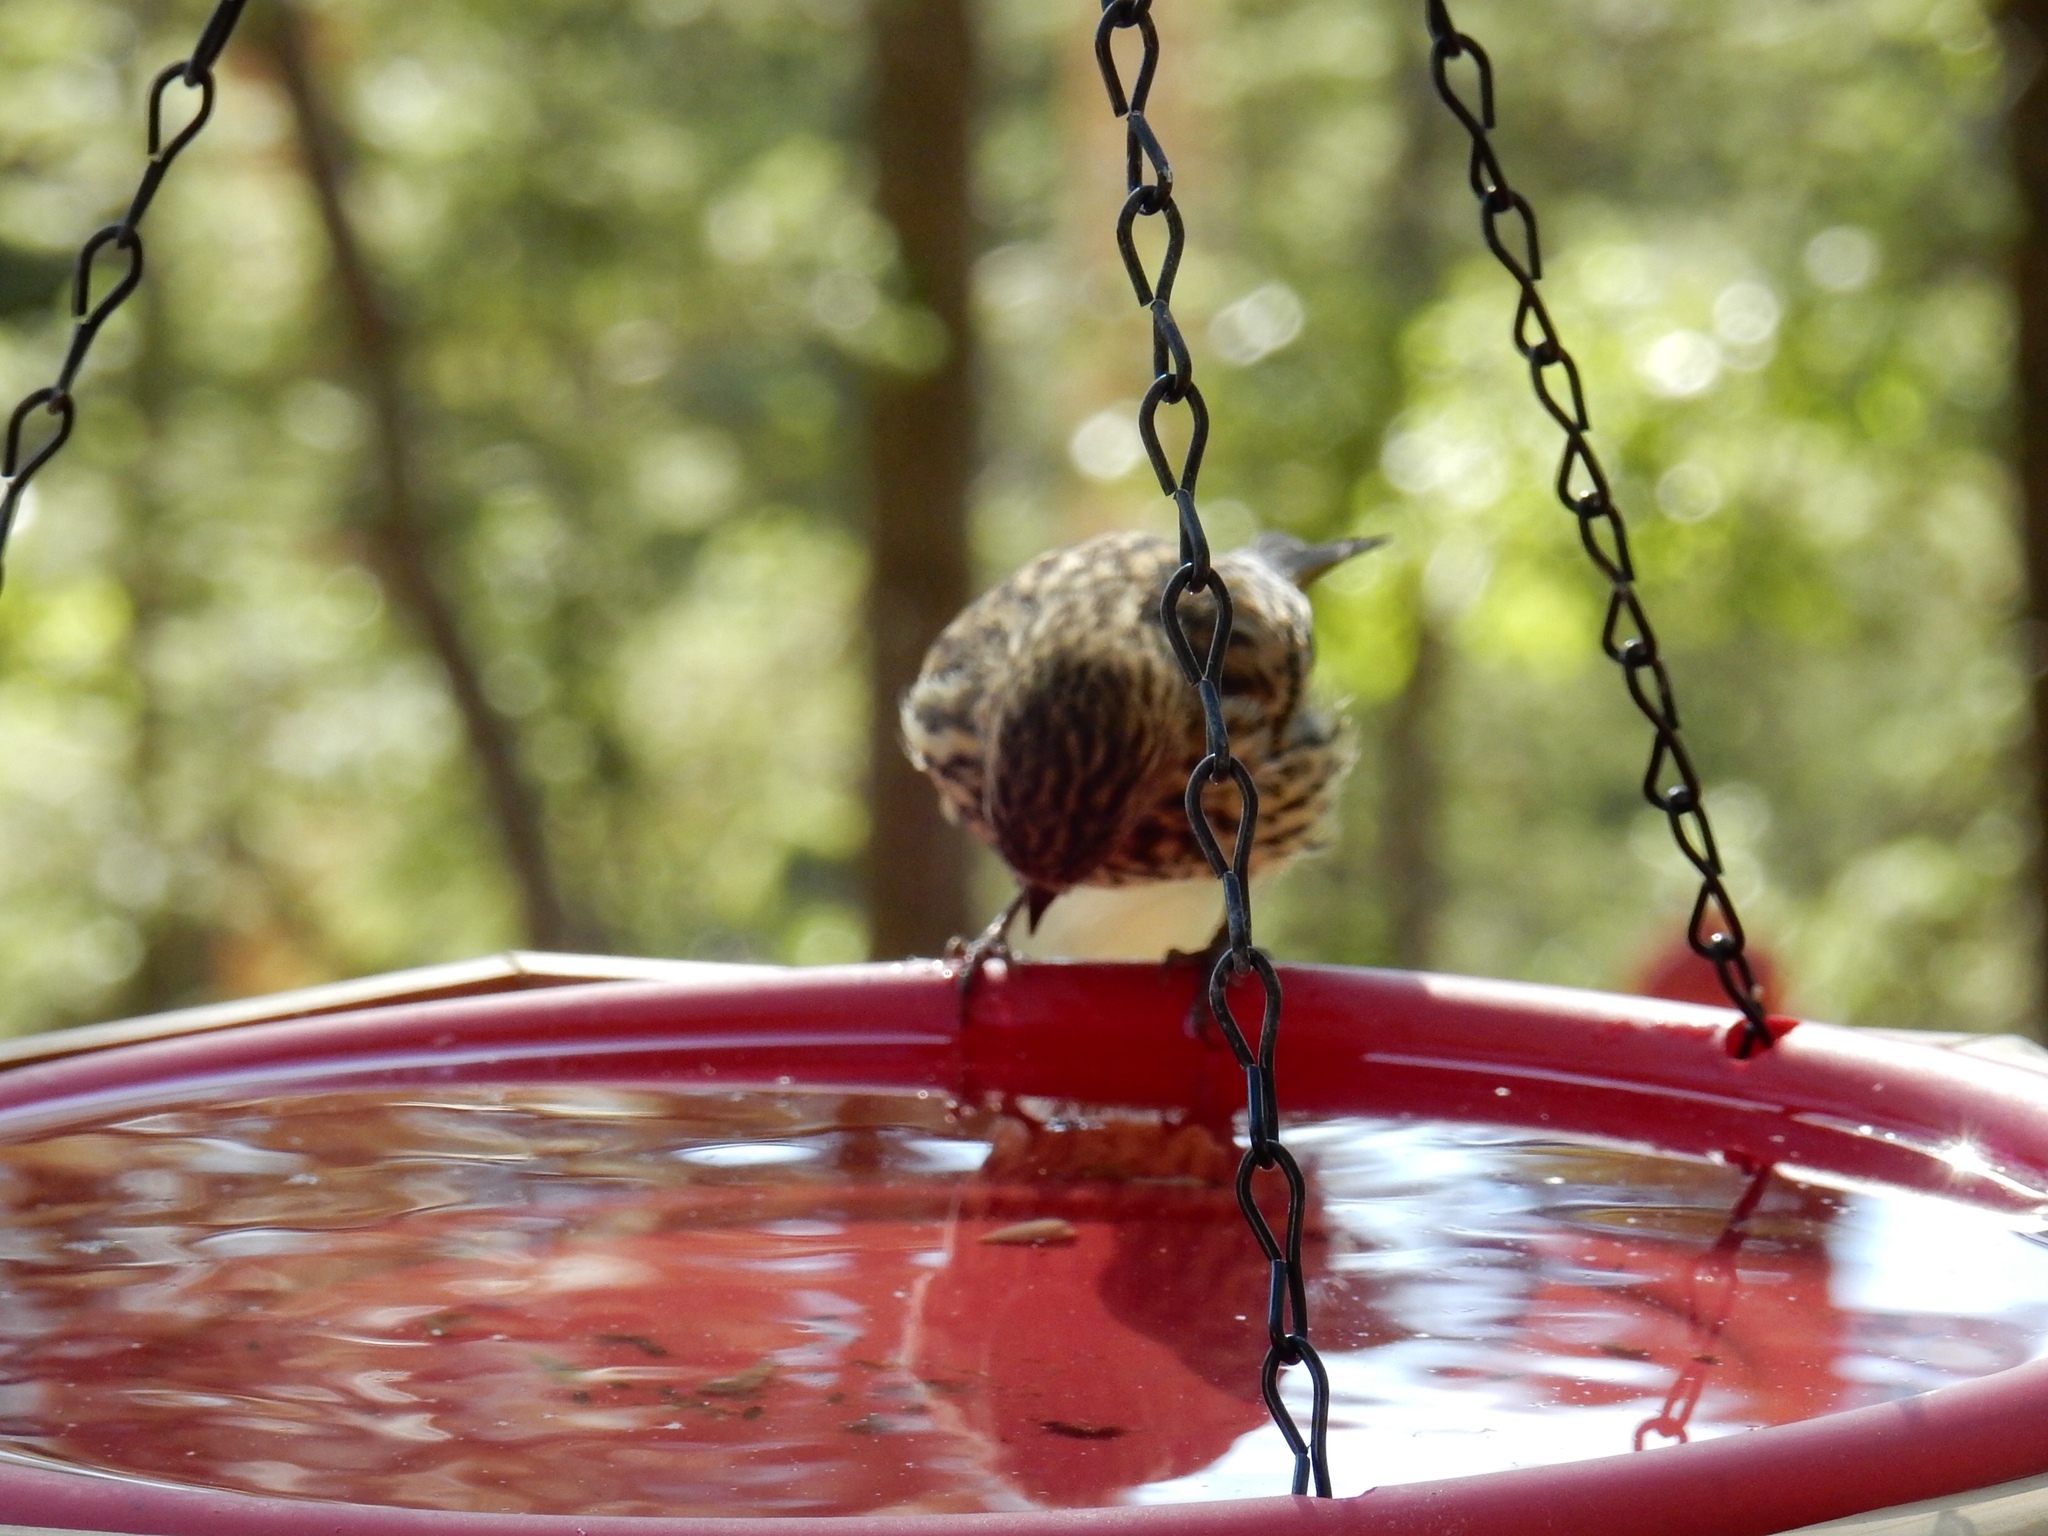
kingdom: Animalia
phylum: Chordata
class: Aves
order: Passeriformes
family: Fringillidae
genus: Spinus
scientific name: Spinus pinus
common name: Pine siskin
